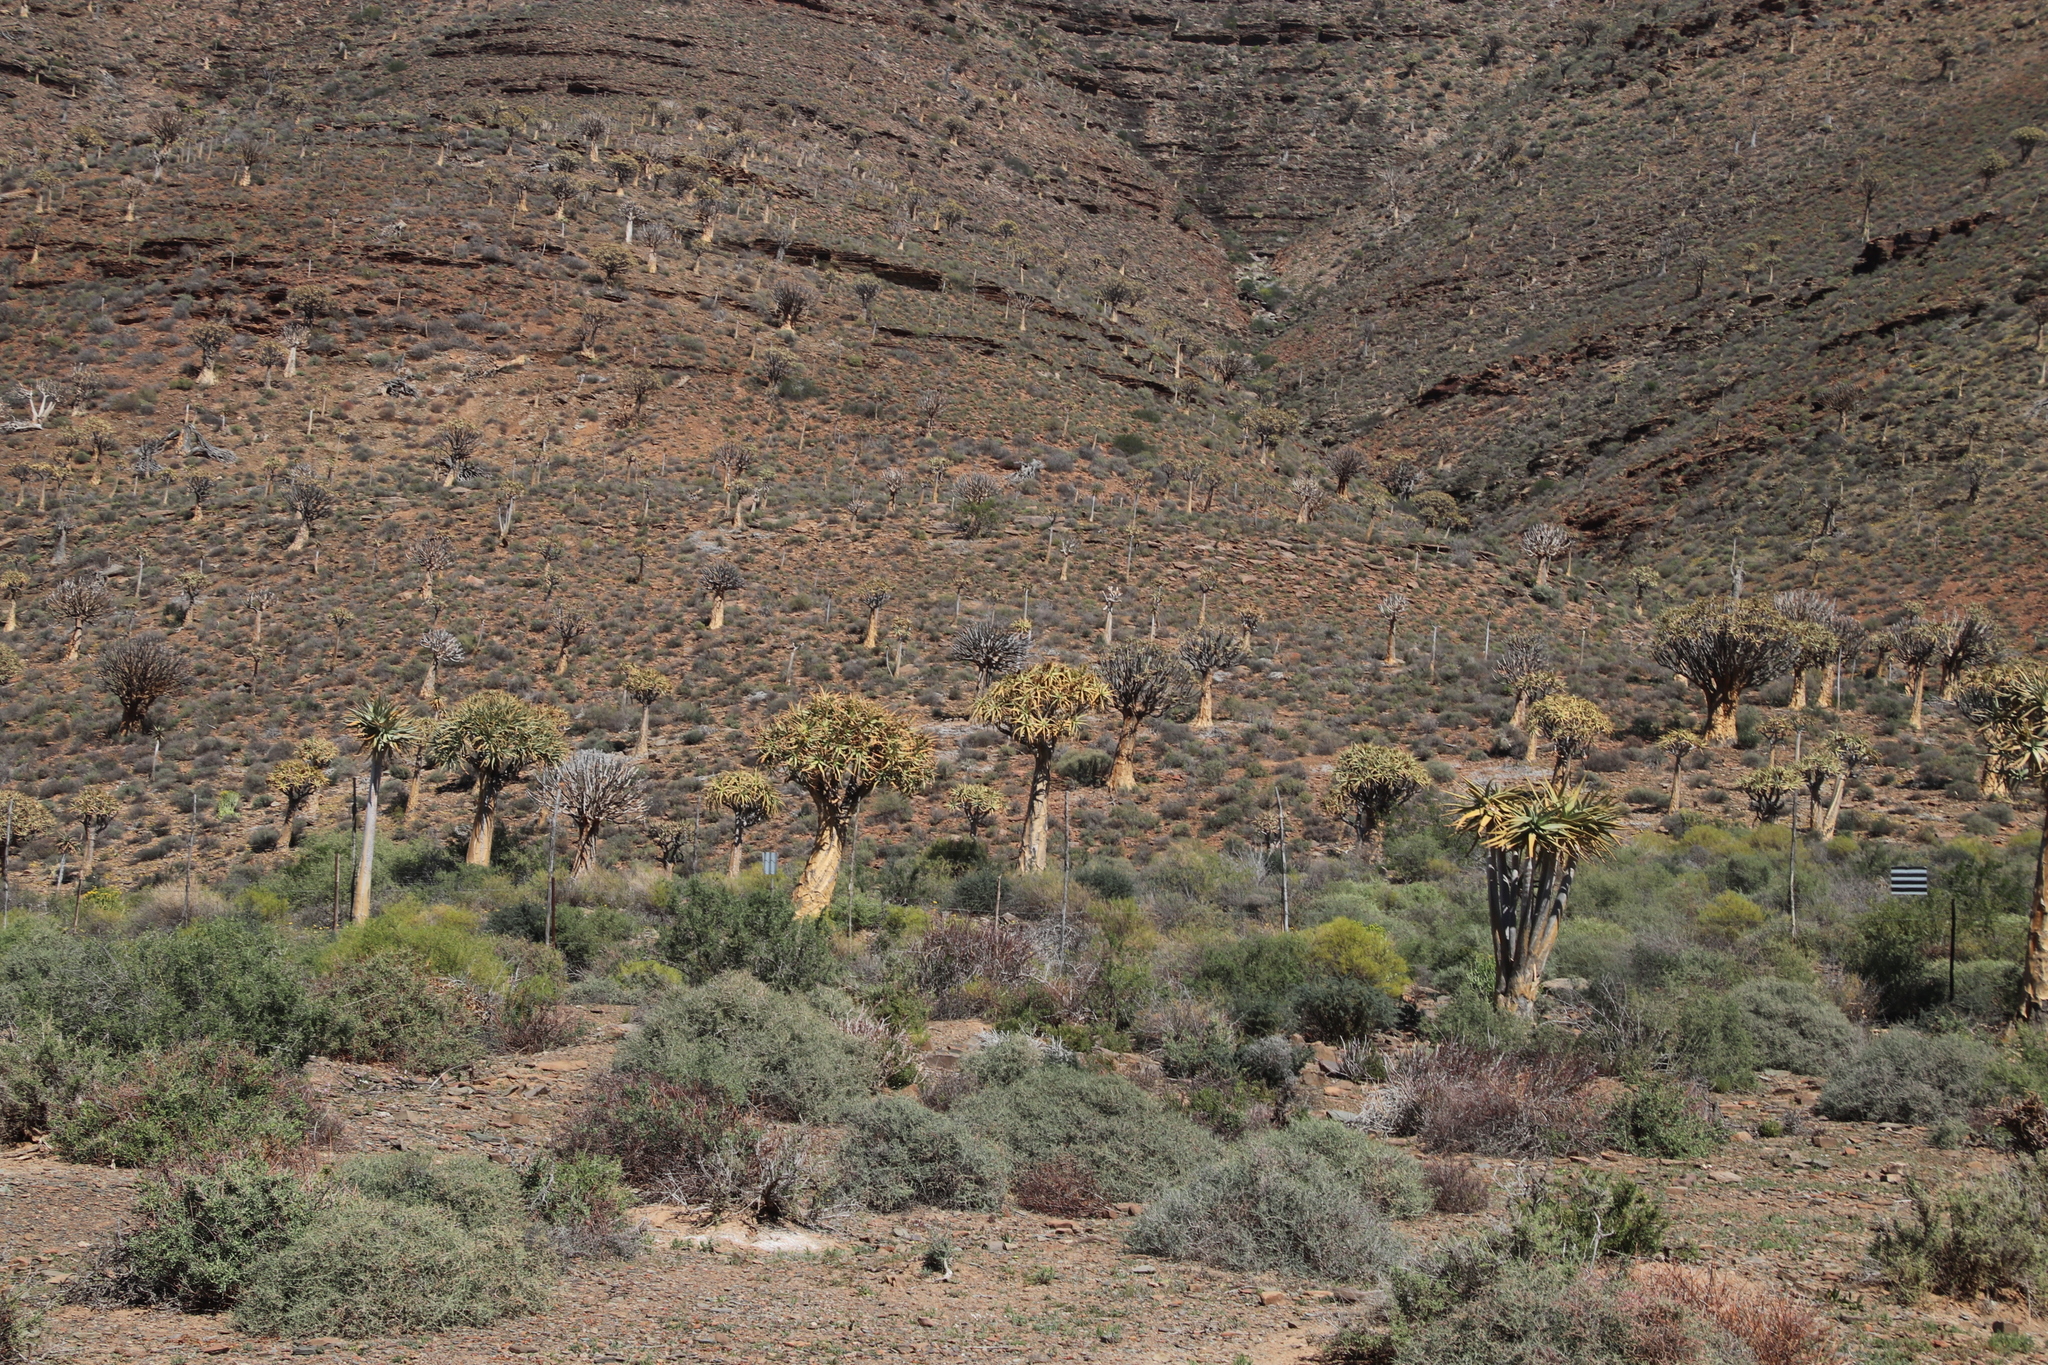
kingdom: Plantae
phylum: Tracheophyta
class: Liliopsida
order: Asparagales
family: Asphodelaceae
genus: Aloidendron
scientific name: Aloidendron dichotomum
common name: Quiver tree
